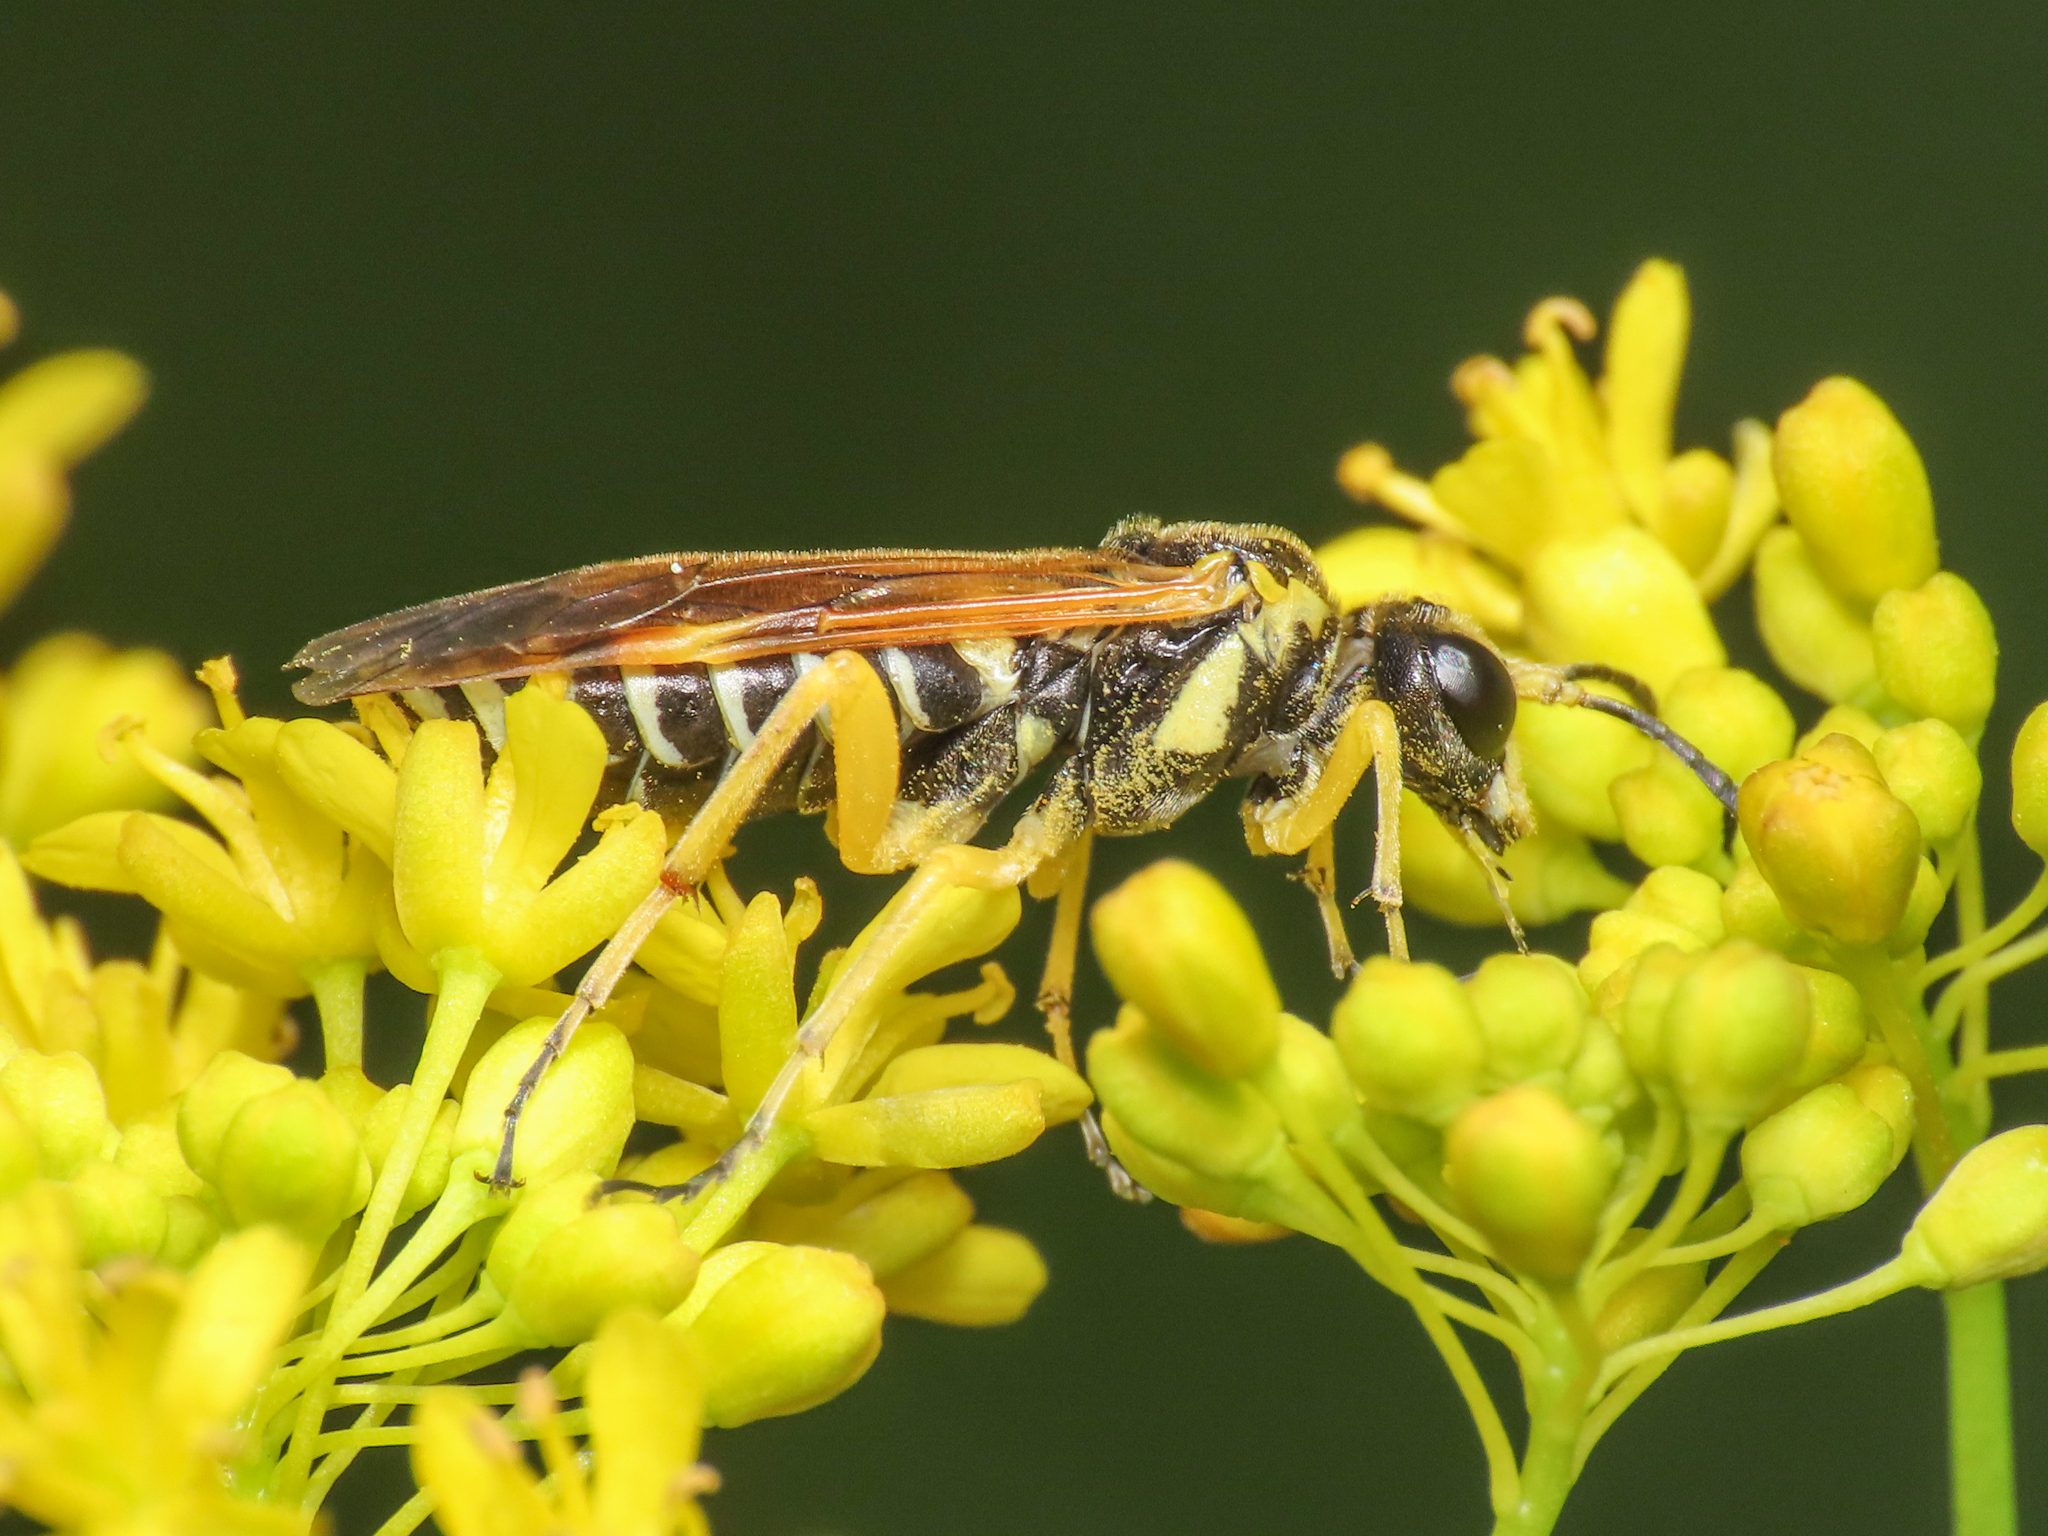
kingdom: Animalia
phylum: Arthropoda
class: Insecta
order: Hymenoptera
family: Tenthredinidae
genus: Tenthredo
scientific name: Tenthredo flaveola
